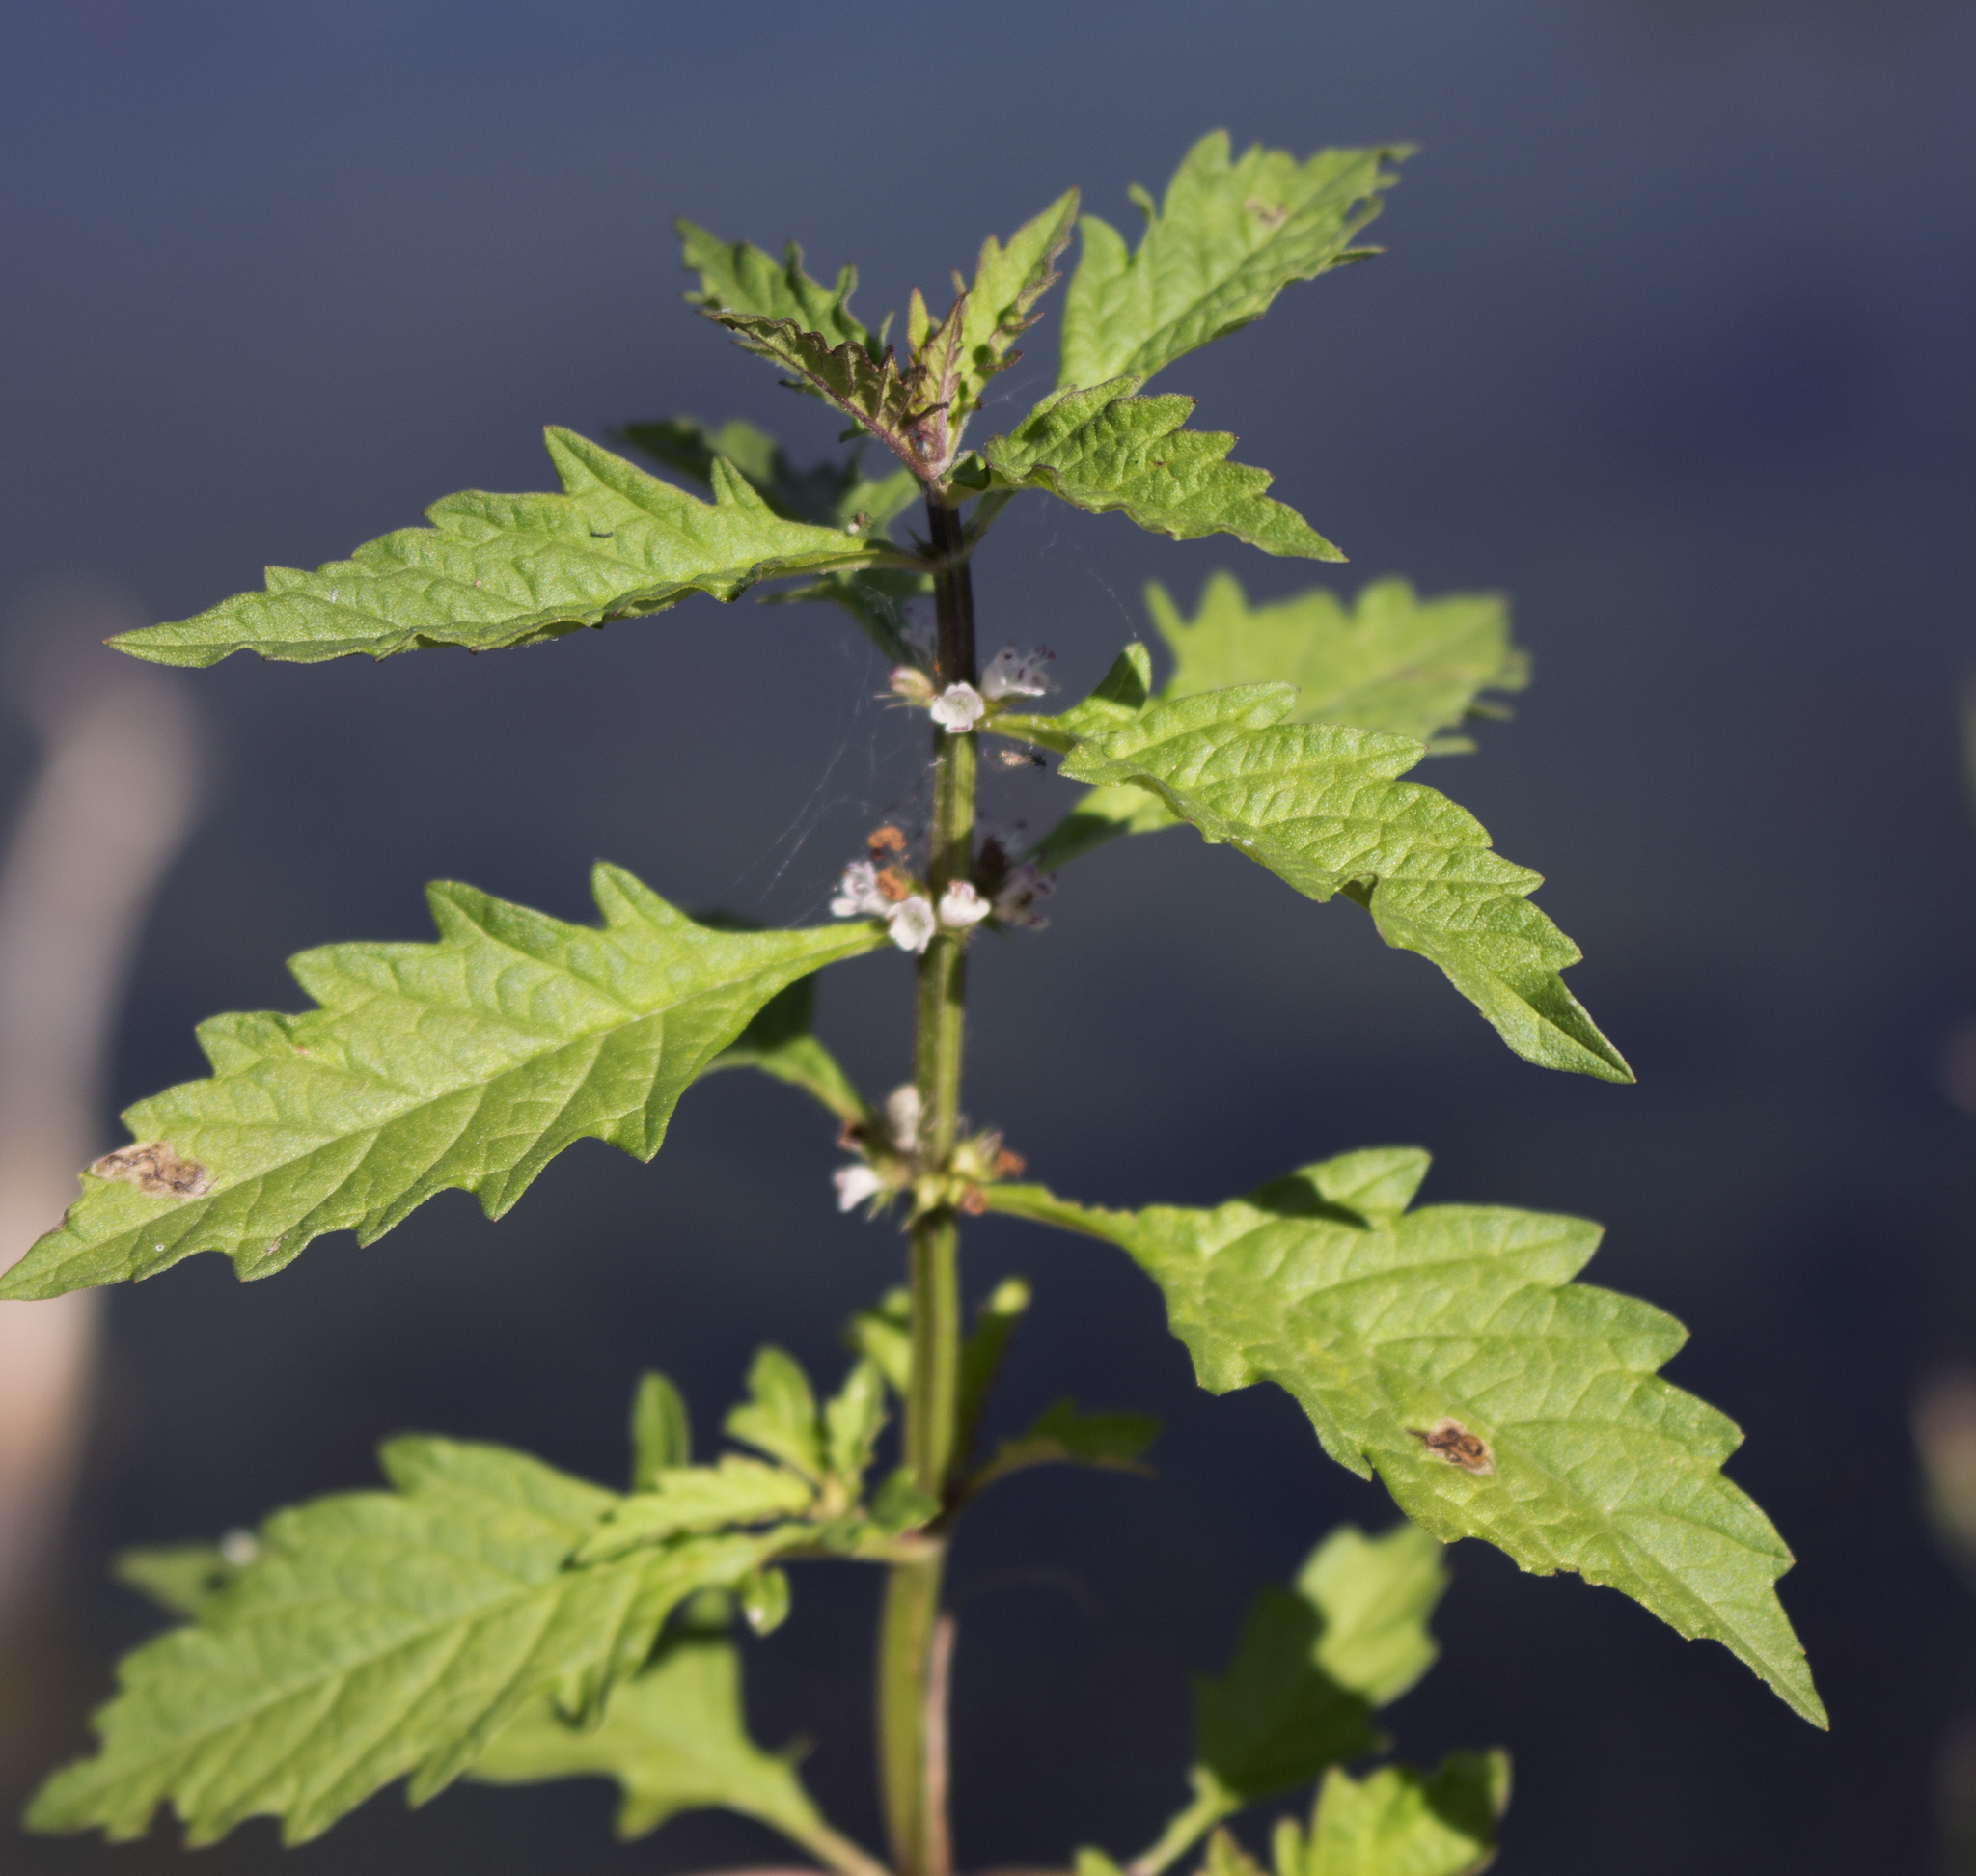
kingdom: Plantae
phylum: Tracheophyta
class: Magnoliopsida
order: Lamiales
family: Lamiaceae
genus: Lycopus
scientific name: Lycopus europaeus
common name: European bugleweed
